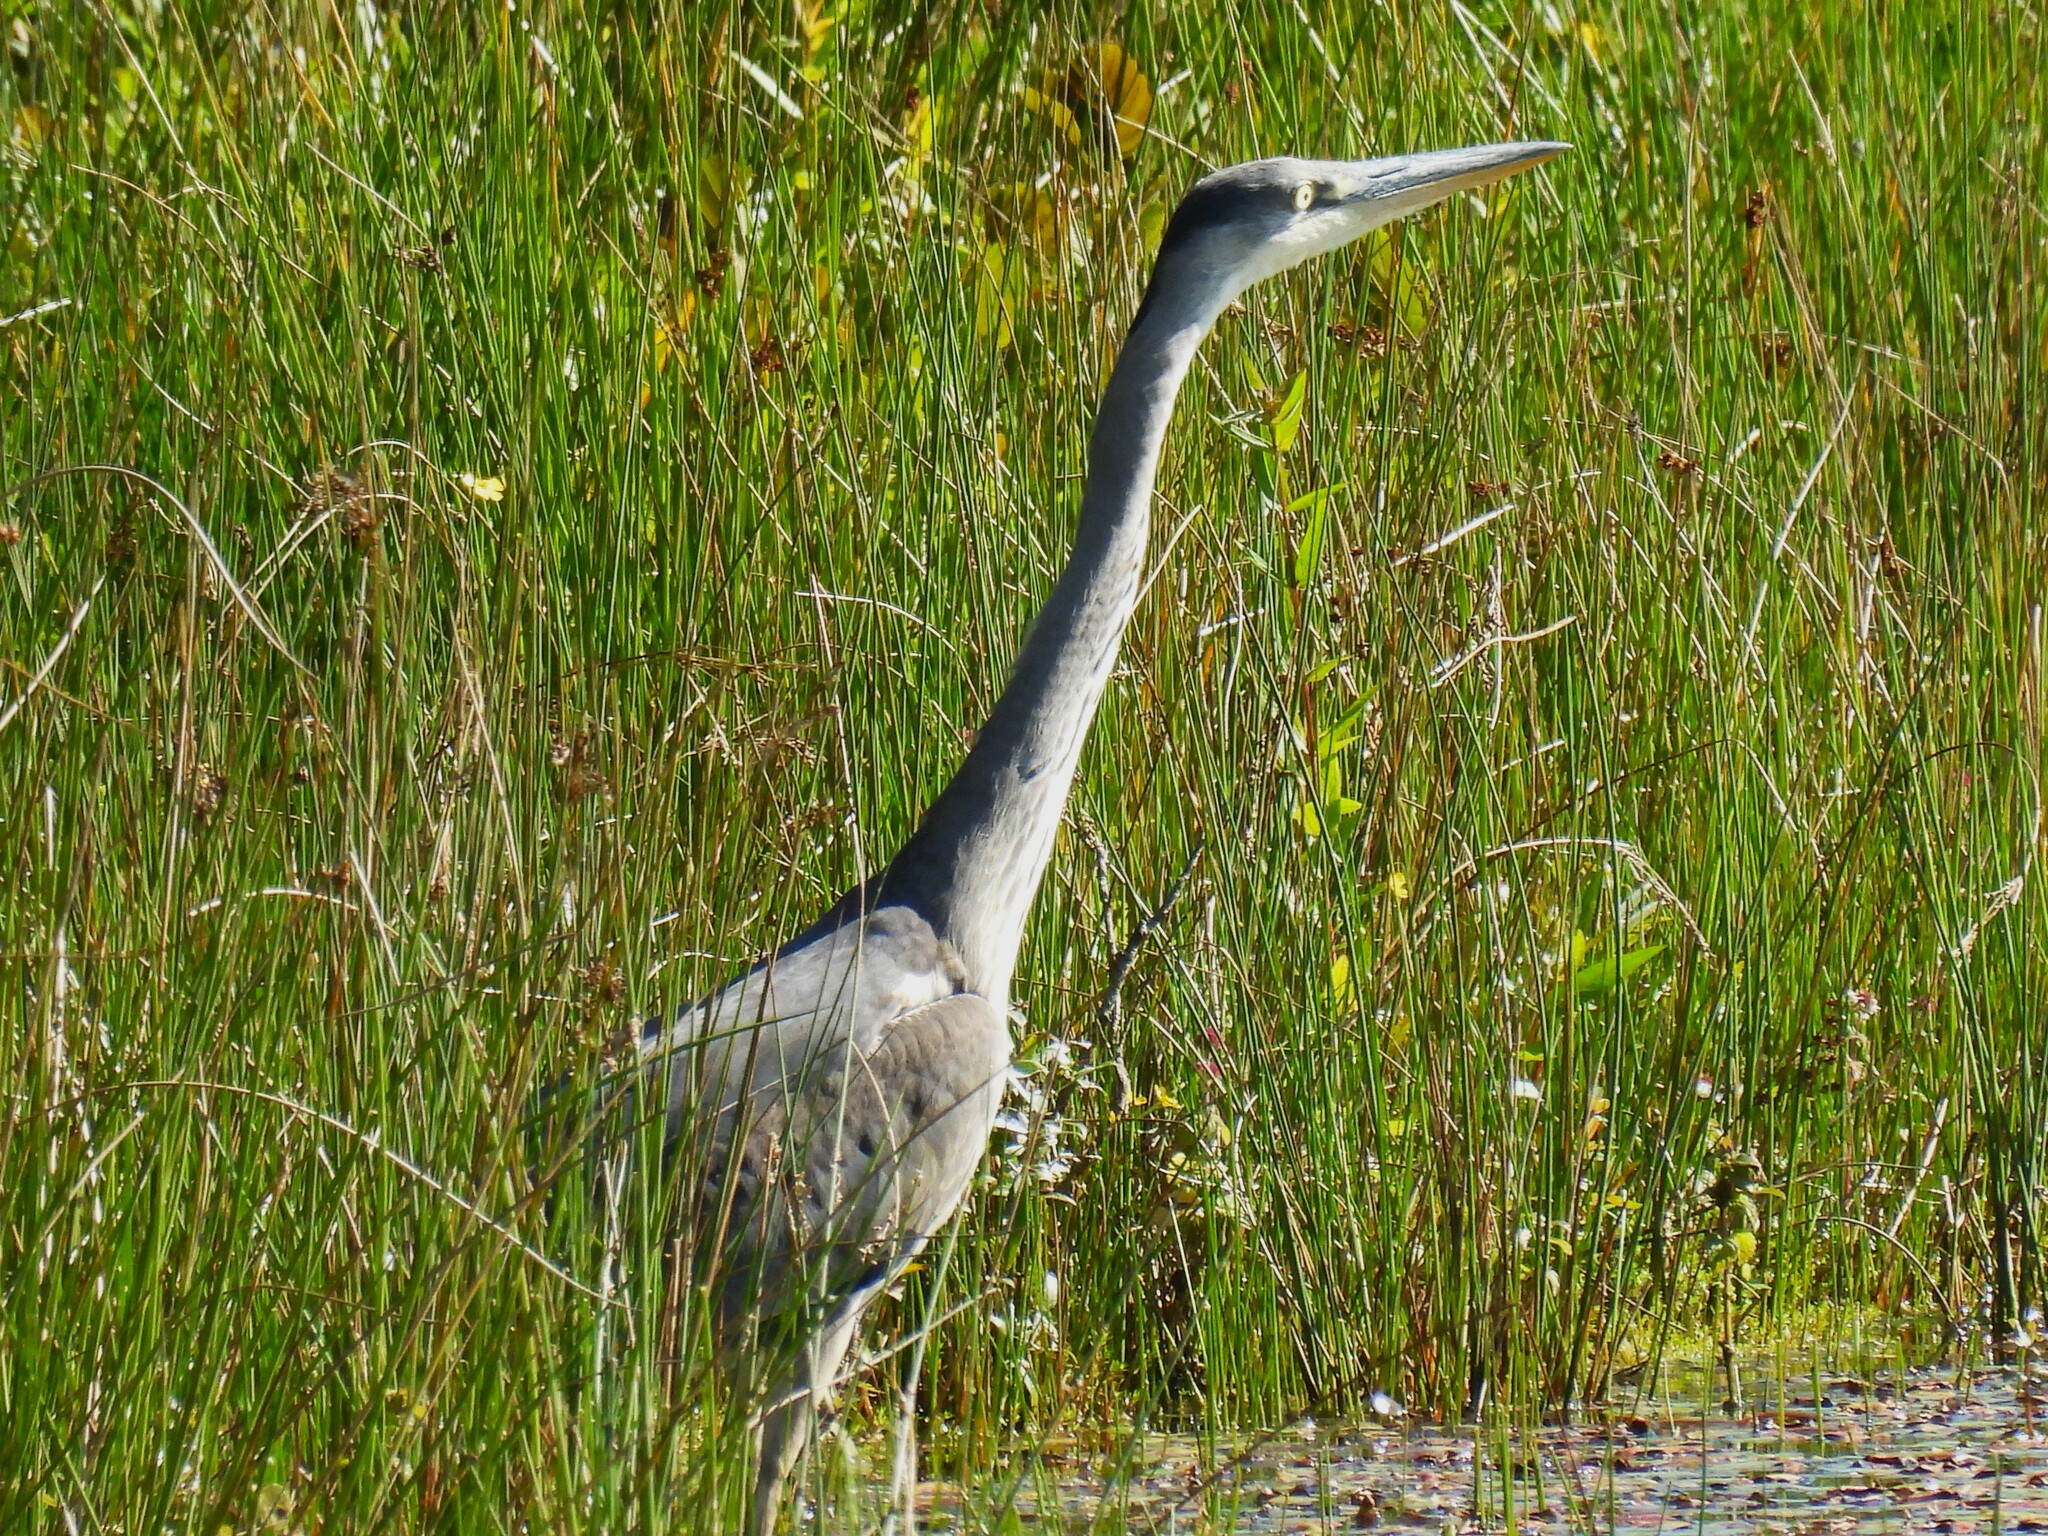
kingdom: Animalia
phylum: Chordata
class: Aves
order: Pelecaniformes
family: Ardeidae
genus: Ardea
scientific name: Ardea cinerea
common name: Grey heron
